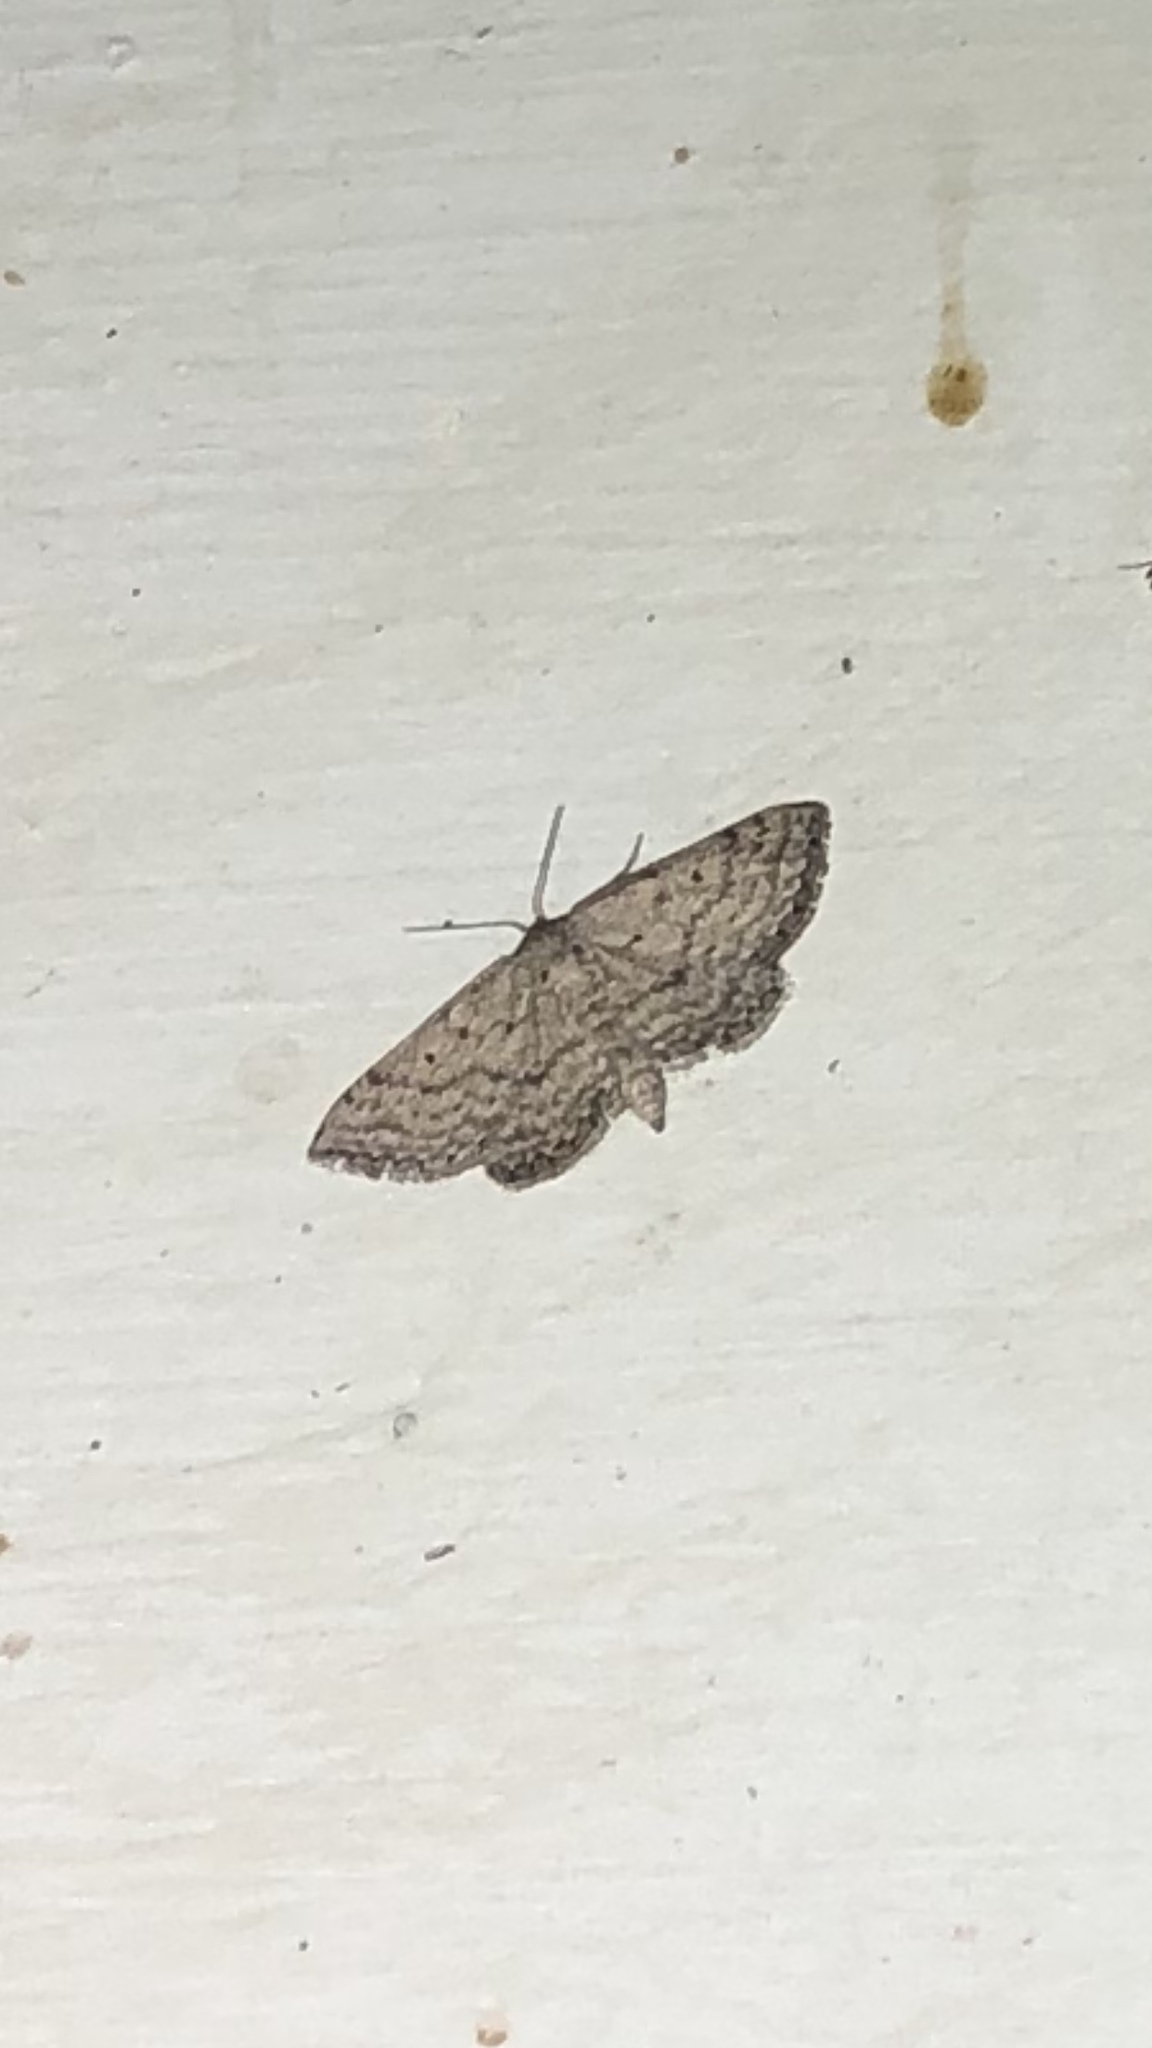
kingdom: Animalia
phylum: Arthropoda
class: Insecta
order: Lepidoptera
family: Geometridae
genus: Lobocleta
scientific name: Lobocleta ossularia
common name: Drab brown wave
